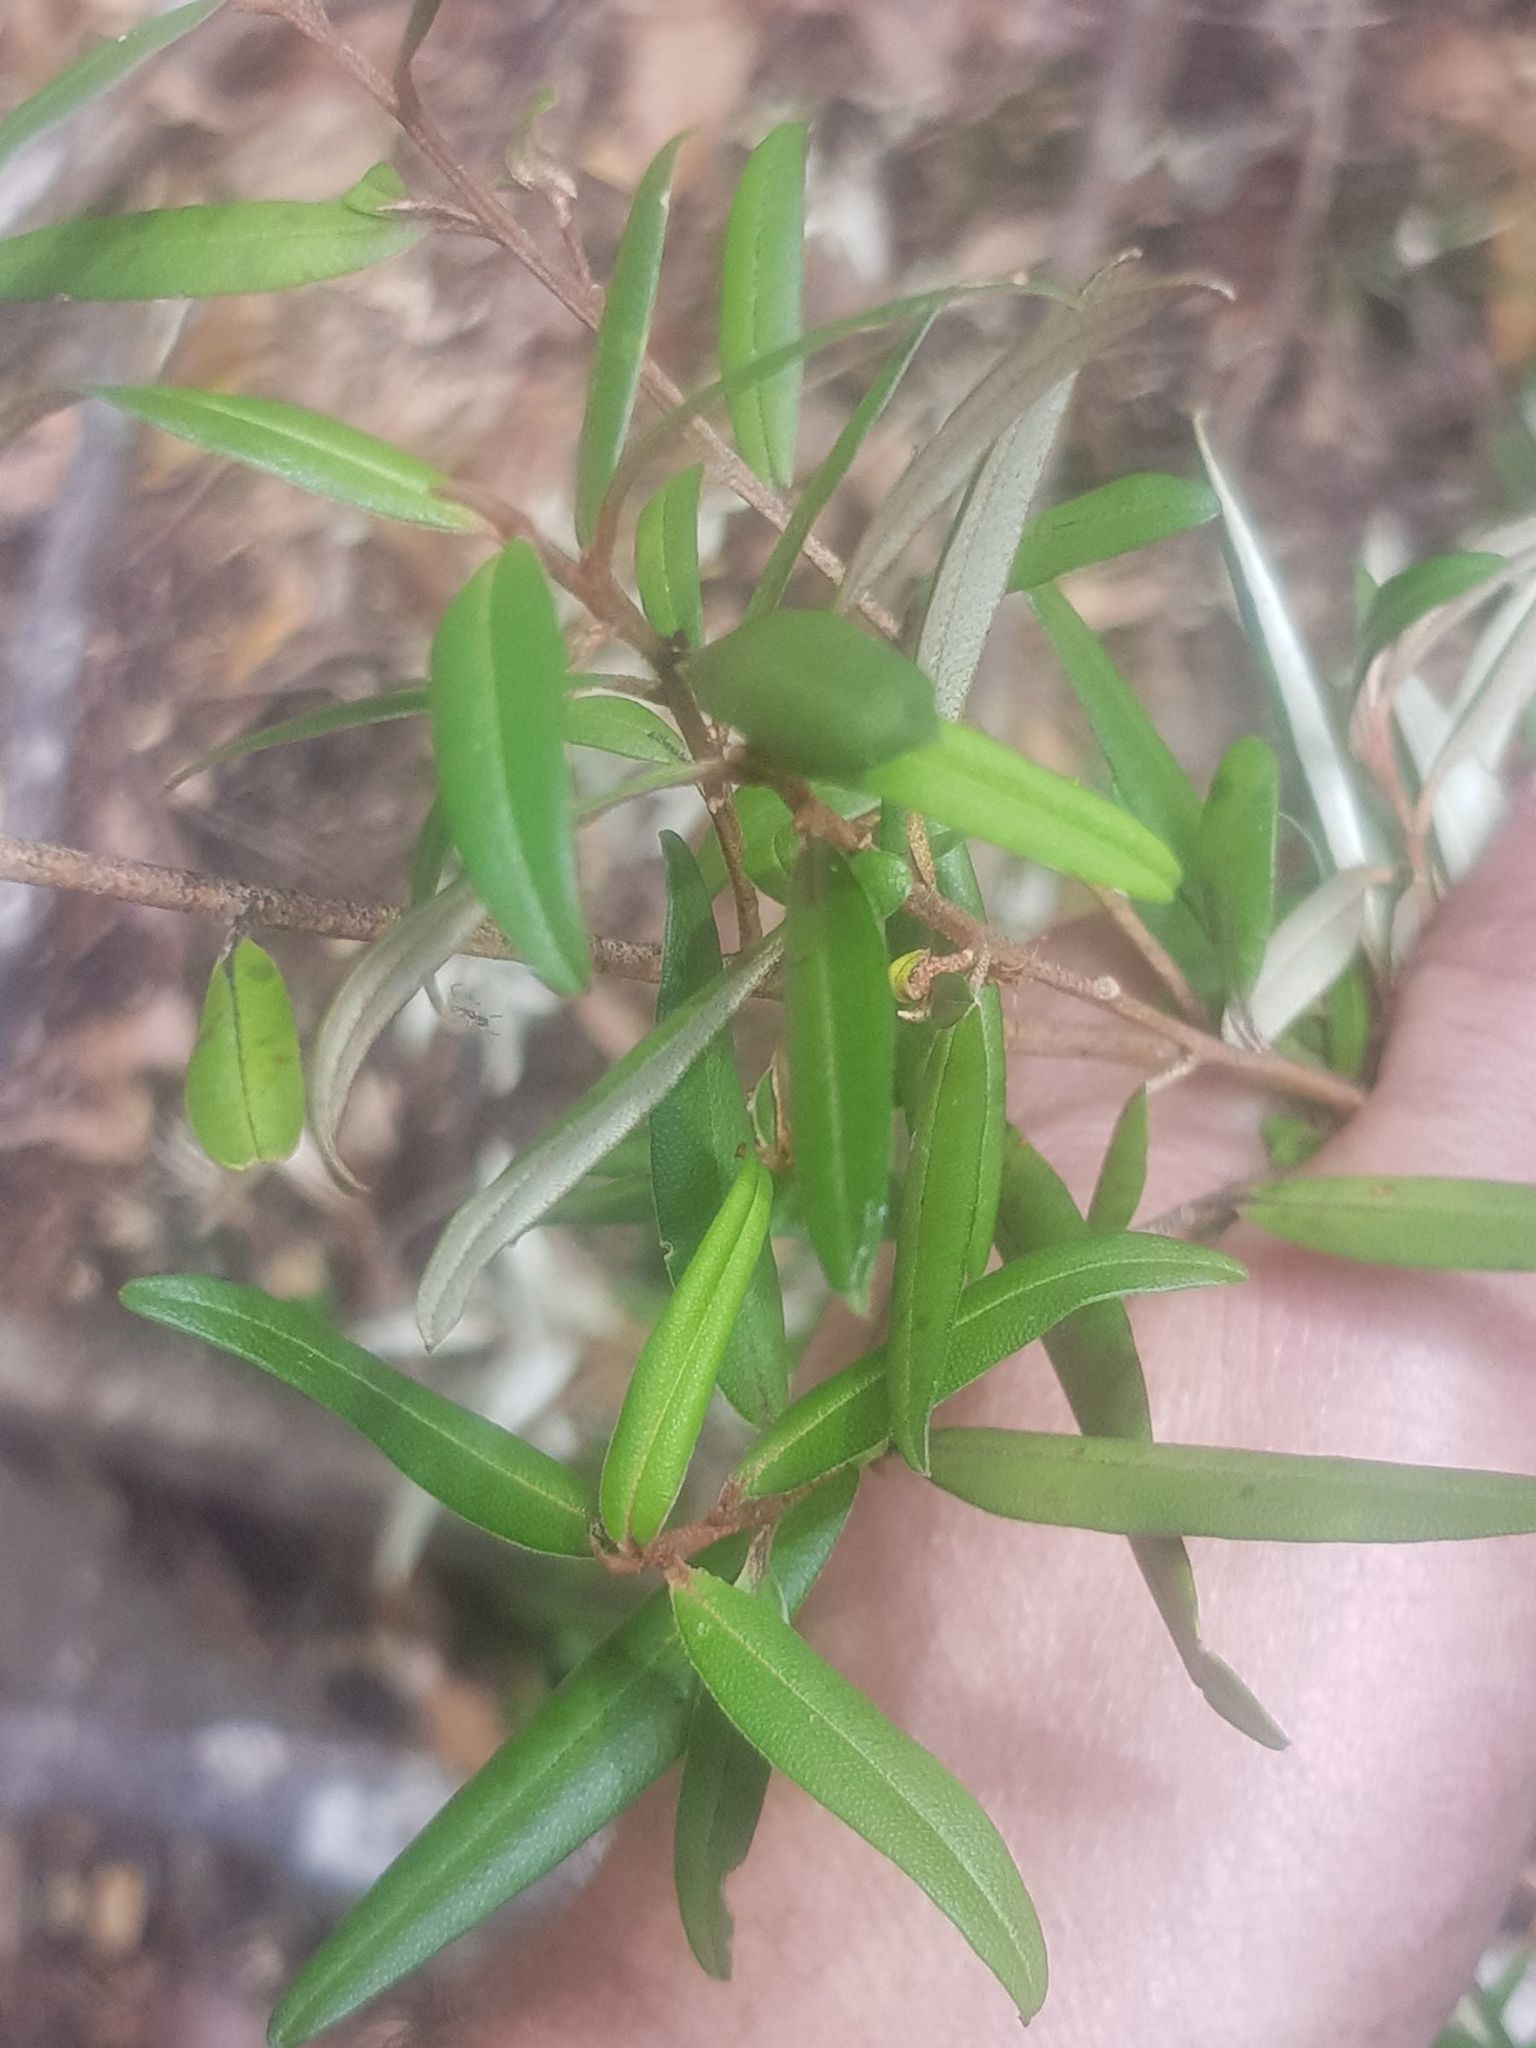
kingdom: Plantae
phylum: Tracheophyta
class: Magnoliopsida
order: Sapindales
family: Rutaceae
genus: Nematolepis
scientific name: Nematolepis squamea
